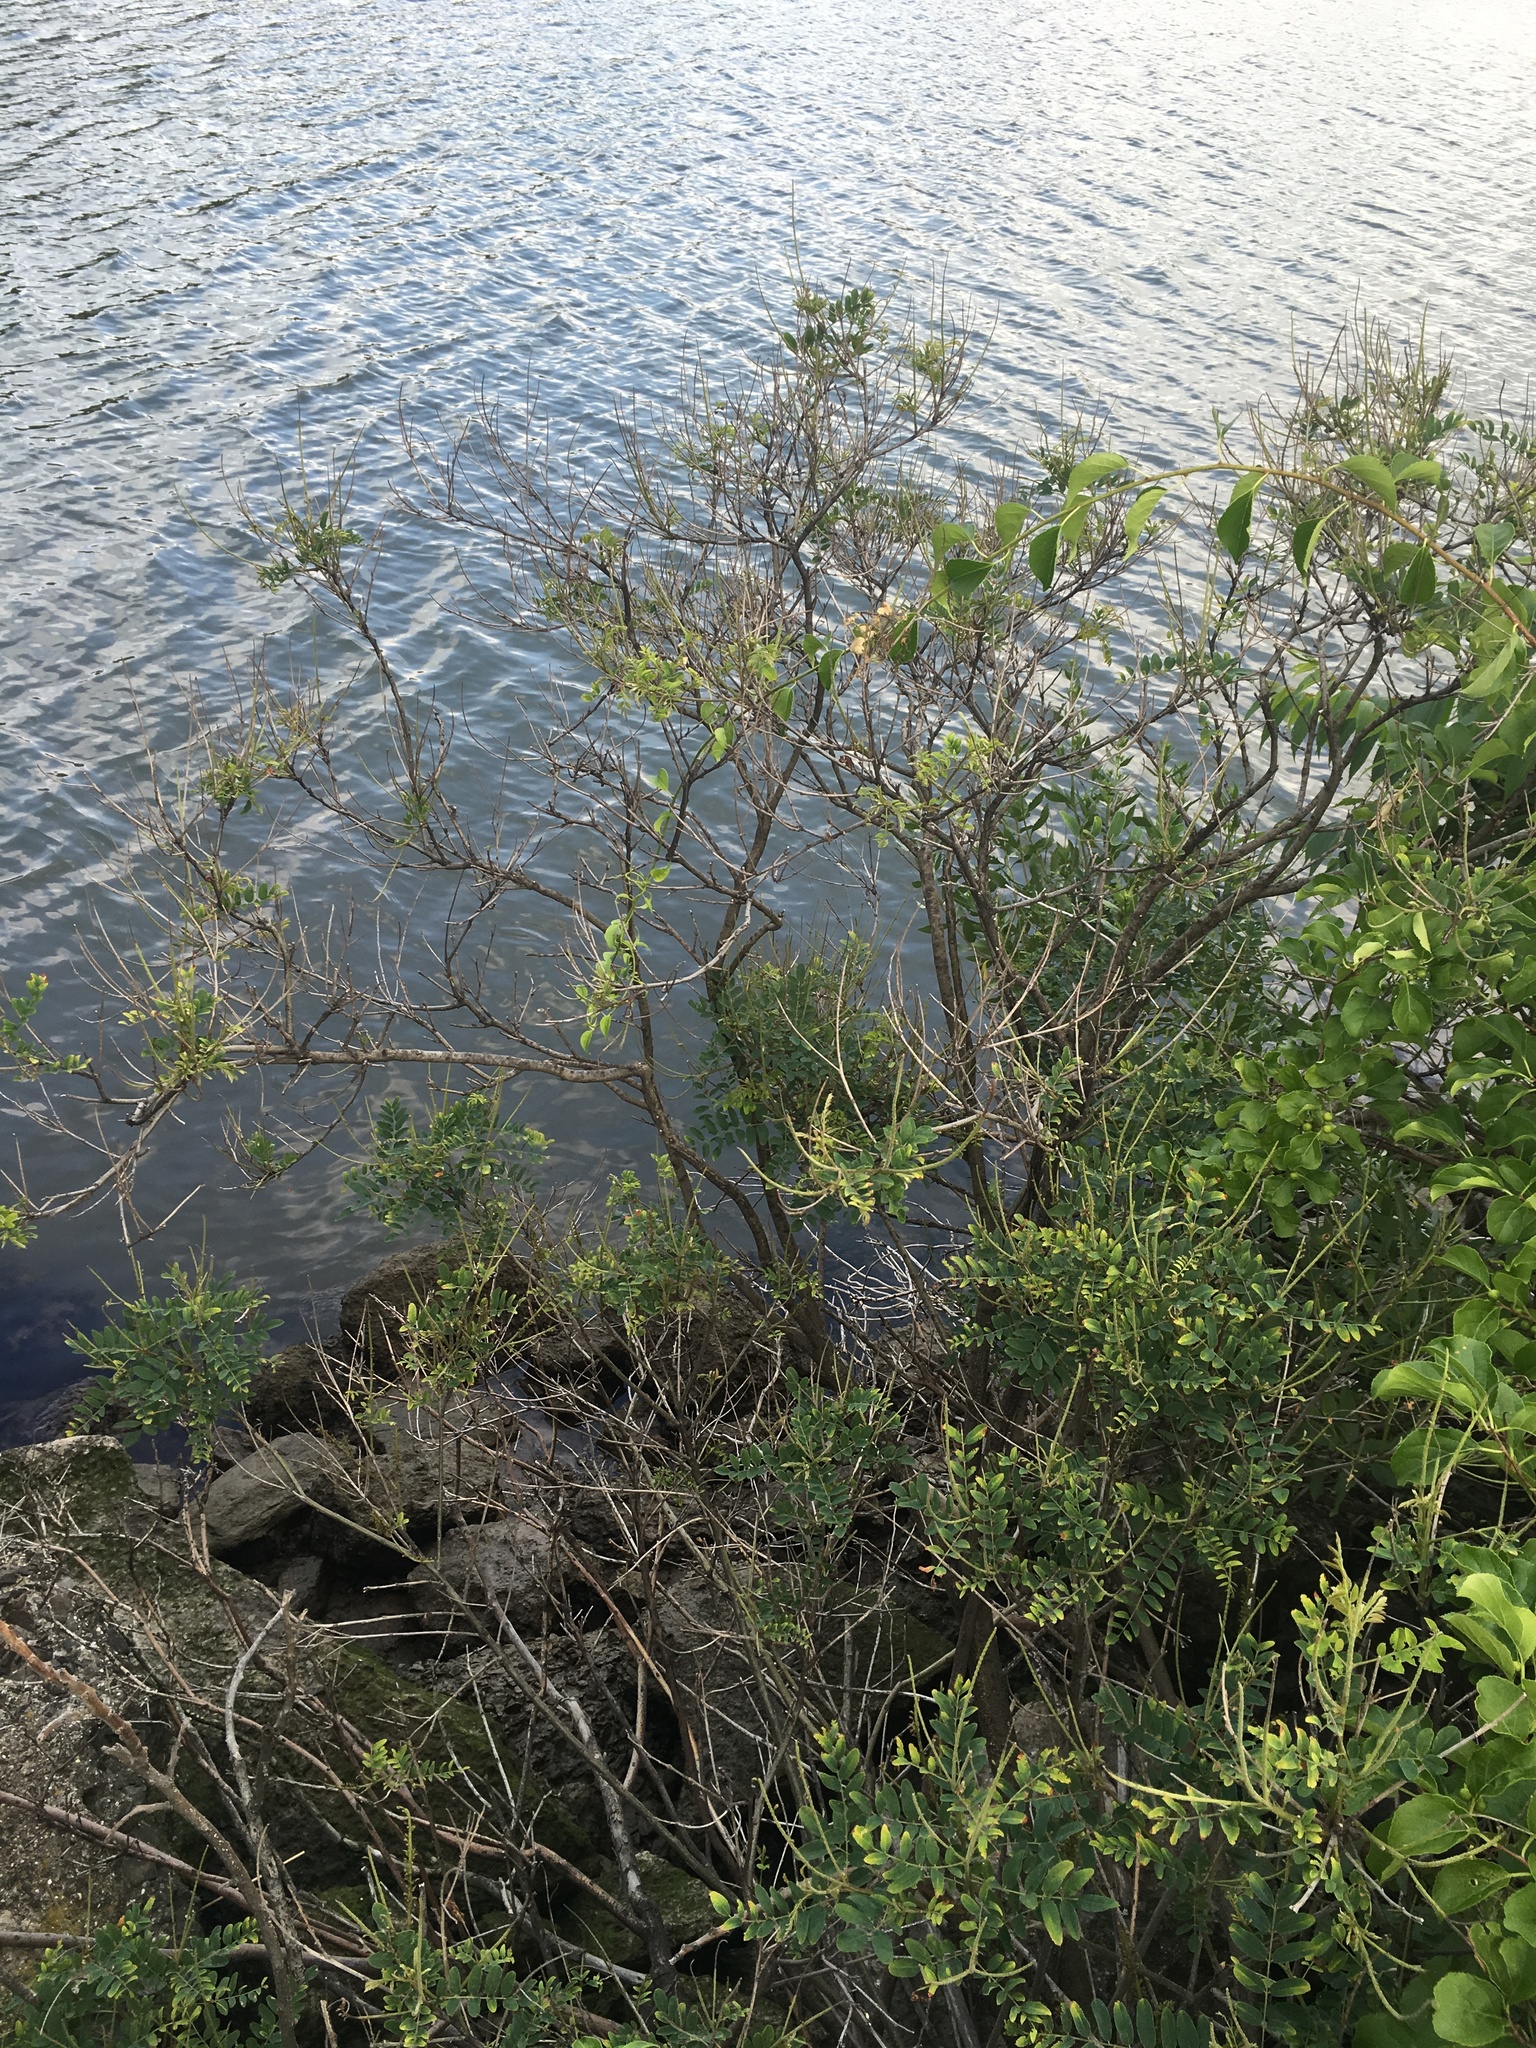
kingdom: Plantae
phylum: Tracheophyta
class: Magnoliopsida
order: Fabales
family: Fabaceae
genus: Amorpha
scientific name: Amorpha fruticosa
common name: False indigo
